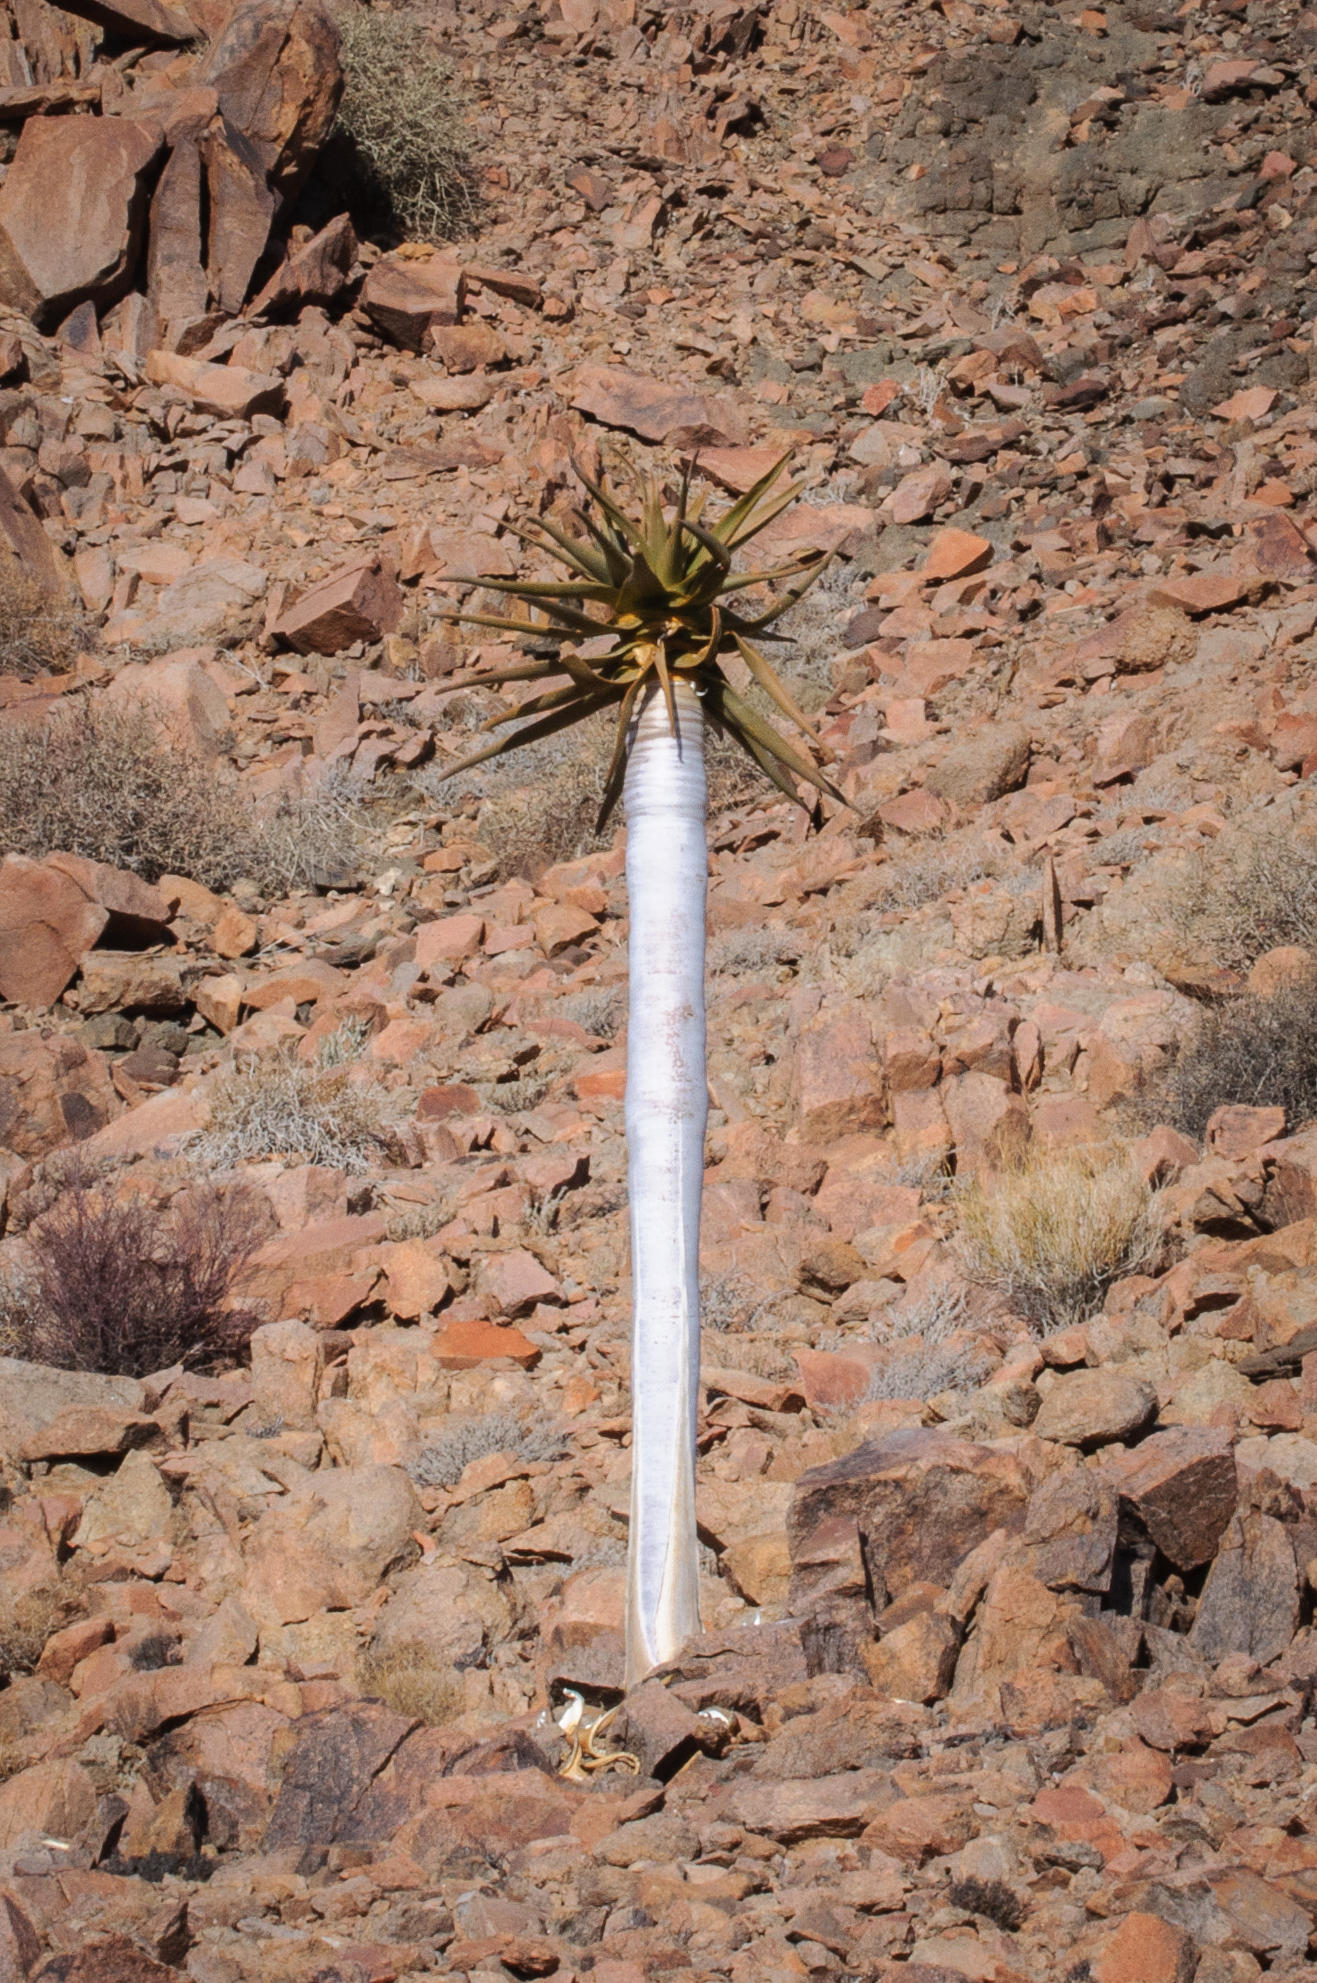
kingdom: Plantae
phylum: Tracheophyta
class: Liliopsida
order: Asparagales
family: Asphodelaceae
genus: Aloidendron
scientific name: Aloidendron dichotomum
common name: Quiver tree
